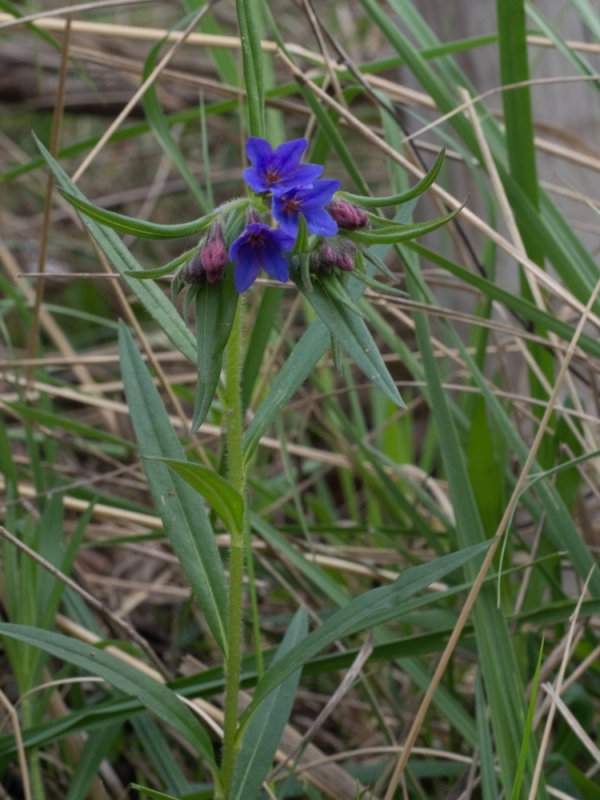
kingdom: Plantae
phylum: Tracheophyta
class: Magnoliopsida
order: Boraginales
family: Boraginaceae
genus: Aegonychon
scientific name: Aegonychon purpurocaeruleum
